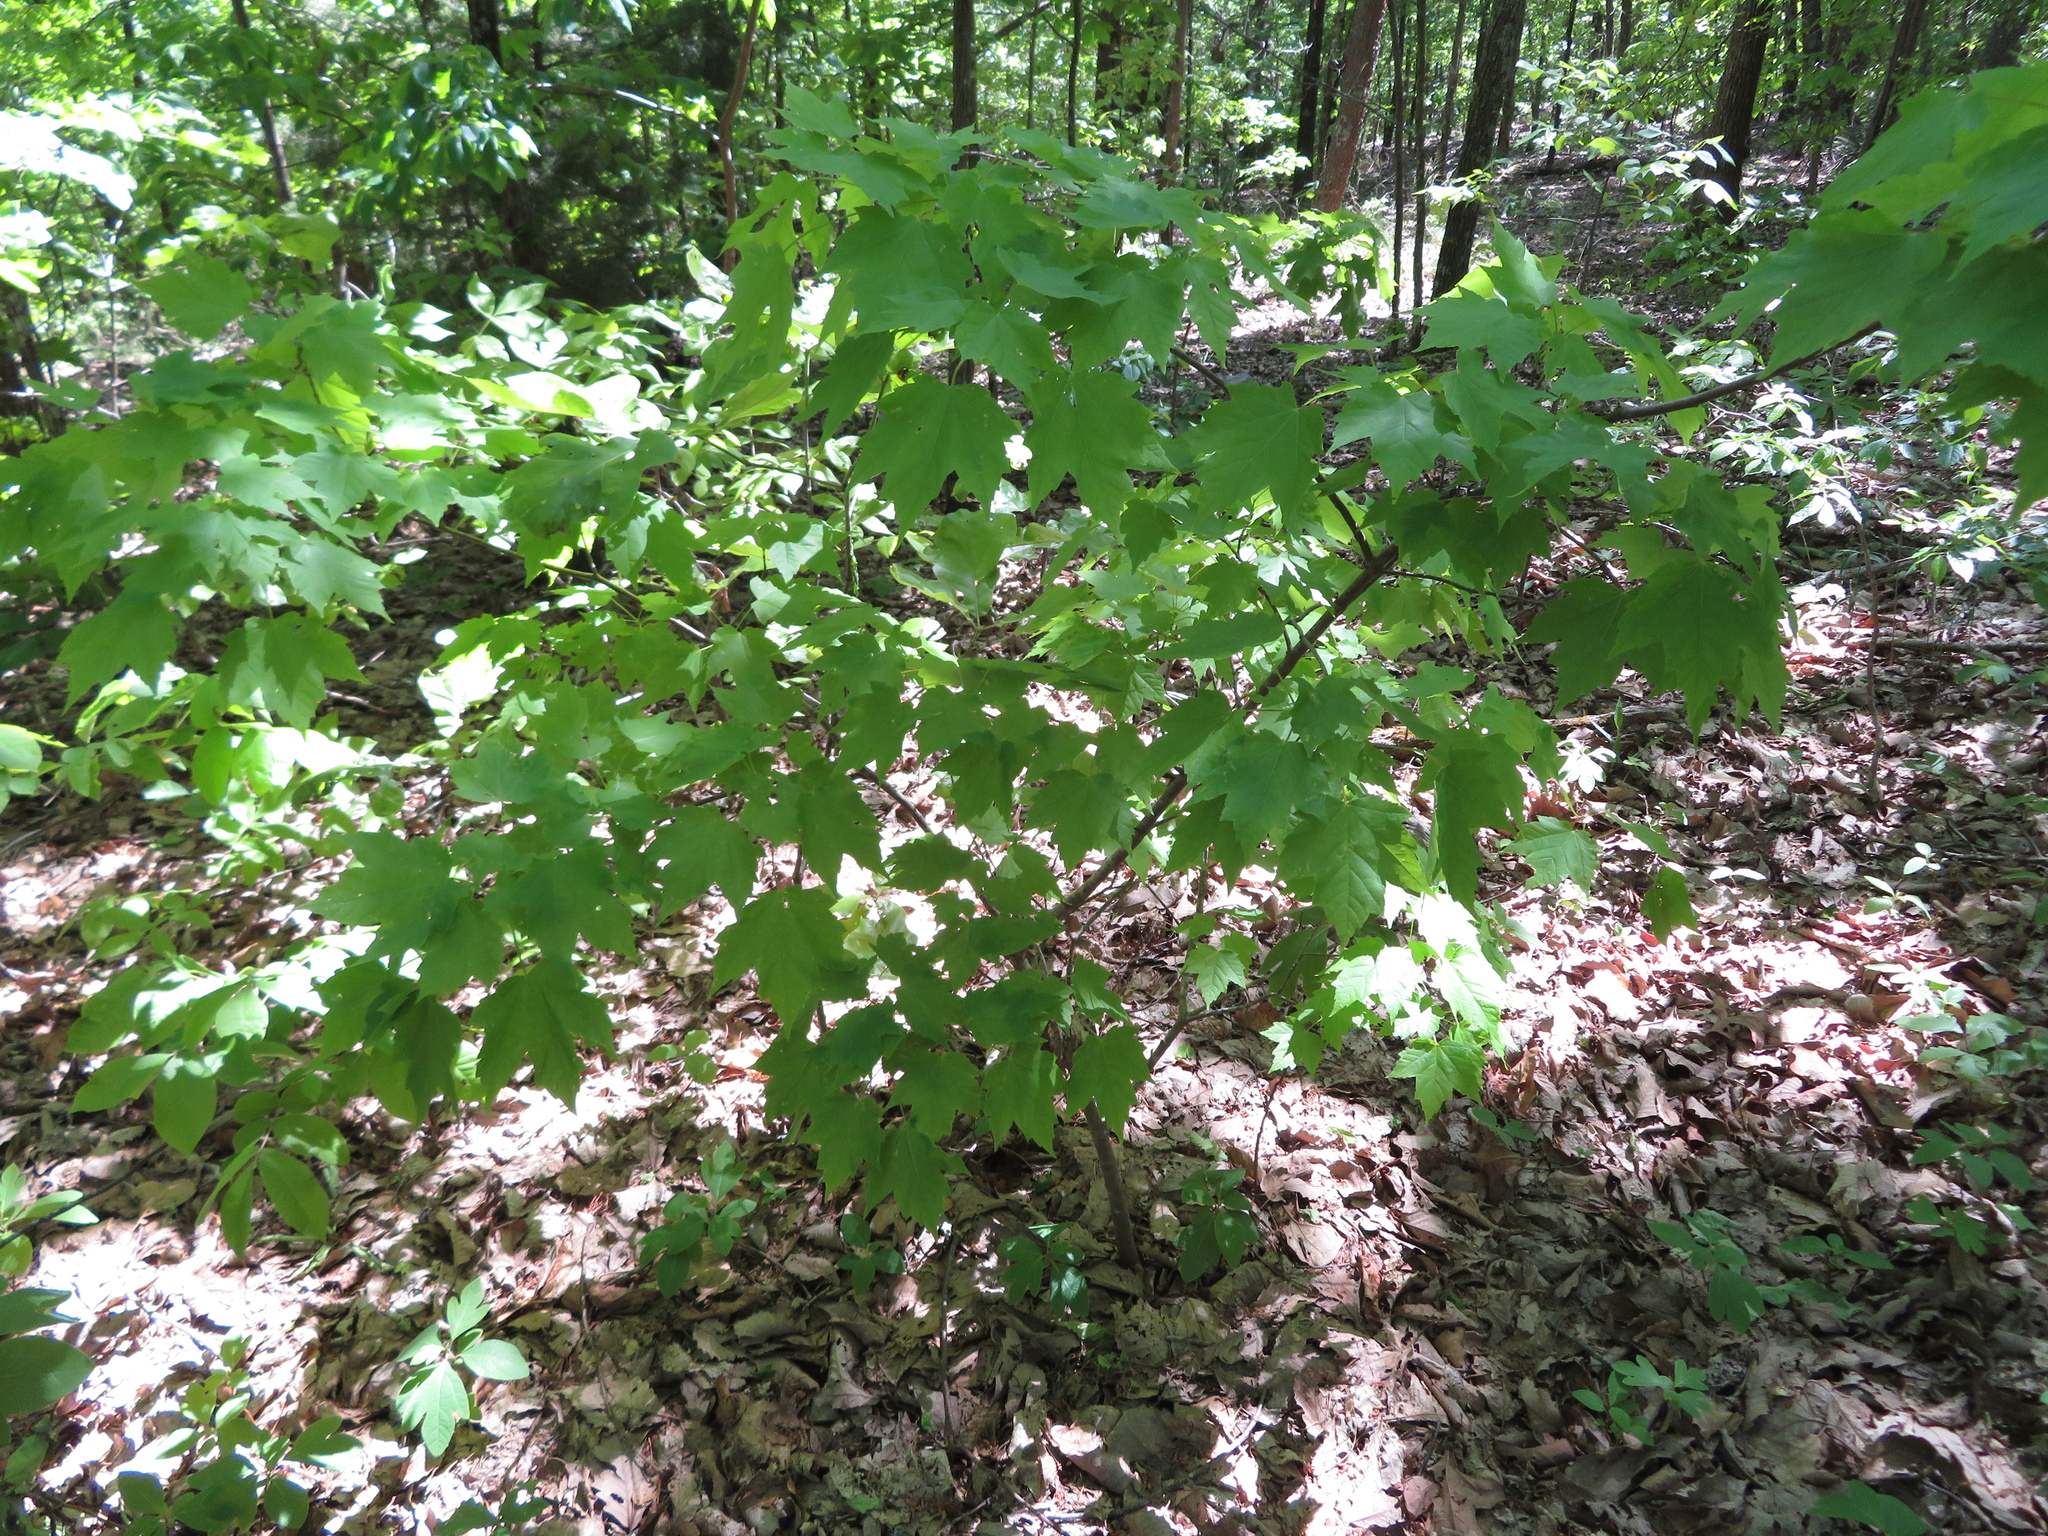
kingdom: Plantae
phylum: Tracheophyta
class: Magnoliopsida
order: Sapindales
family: Sapindaceae
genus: Acer
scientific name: Acer rubrum
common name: Red maple
